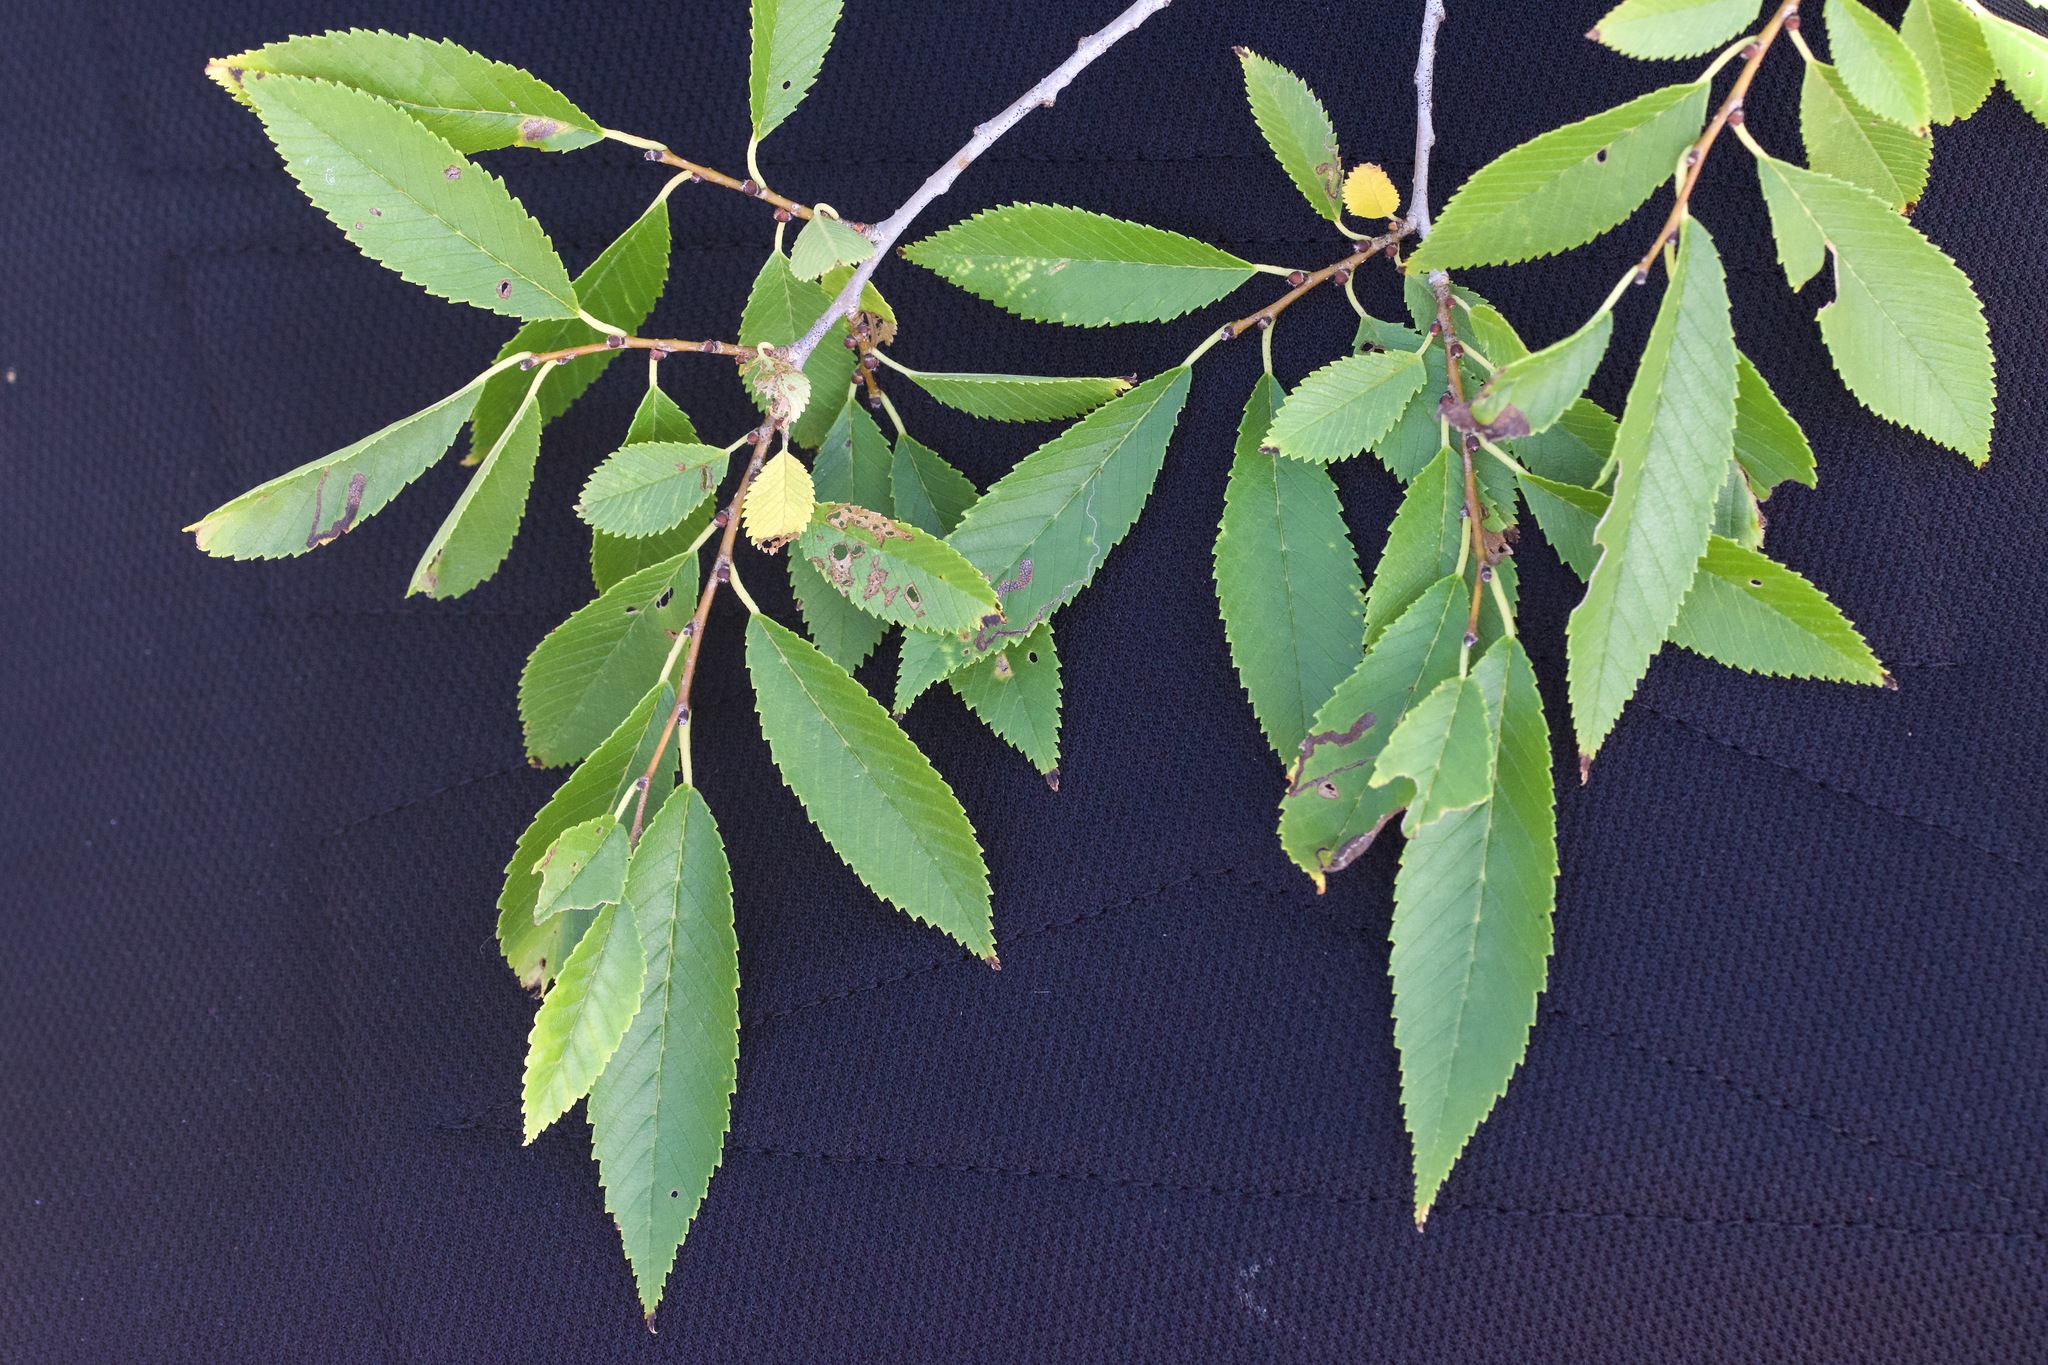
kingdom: Plantae
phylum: Tracheophyta
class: Magnoliopsida
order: Rosales
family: Ulmaceae
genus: Ulmus
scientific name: Ulmus pumila
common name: Siberian elm
